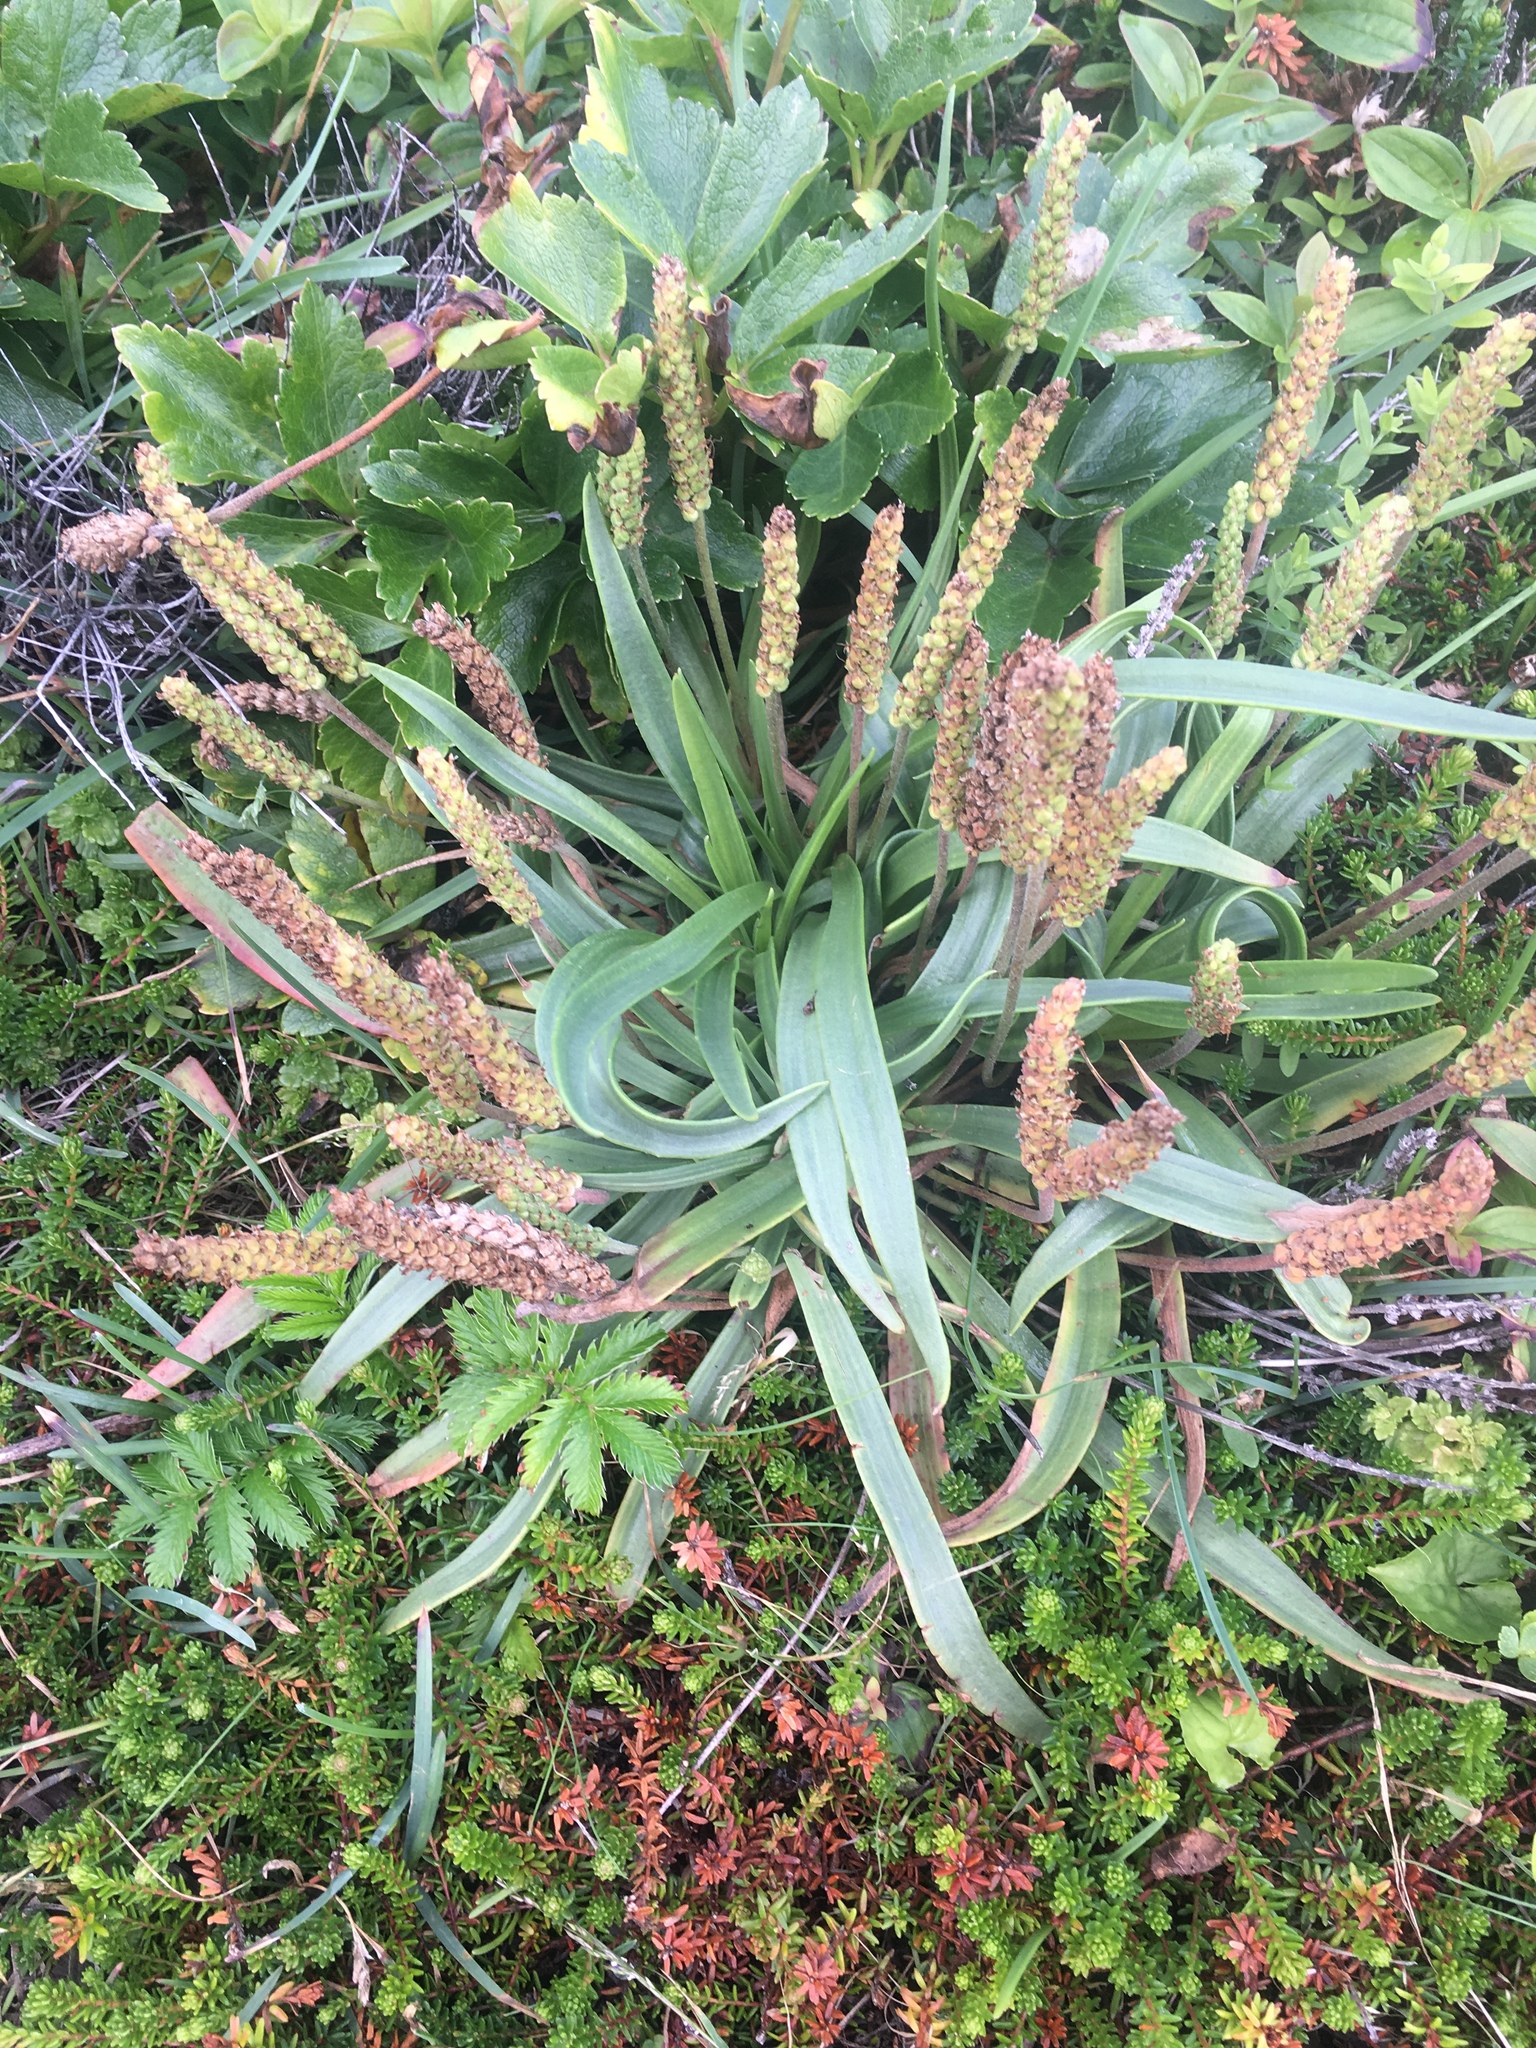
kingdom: Plantae
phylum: Tracheophyta
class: Magnoliopsida
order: Lamiales
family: Plantaginaceae
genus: Plantago
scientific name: Plantago maritima
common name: Sea plantain
